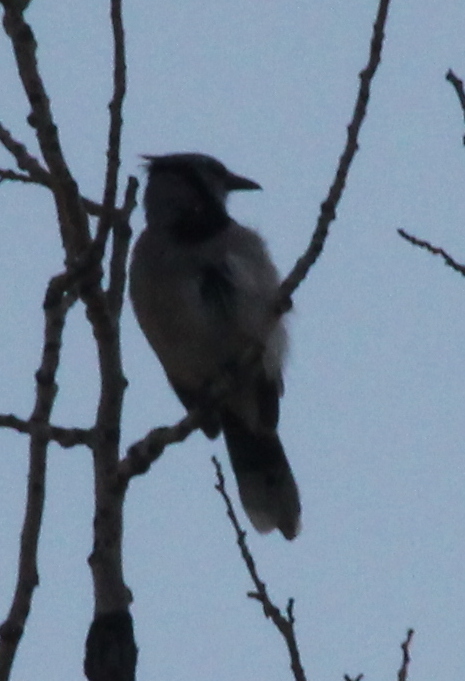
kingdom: Animalia
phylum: Chordata
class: Aves
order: Passeriformes
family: Corvidae
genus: Cyanocitta
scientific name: Cyanocitta cristata
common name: Blue jay
